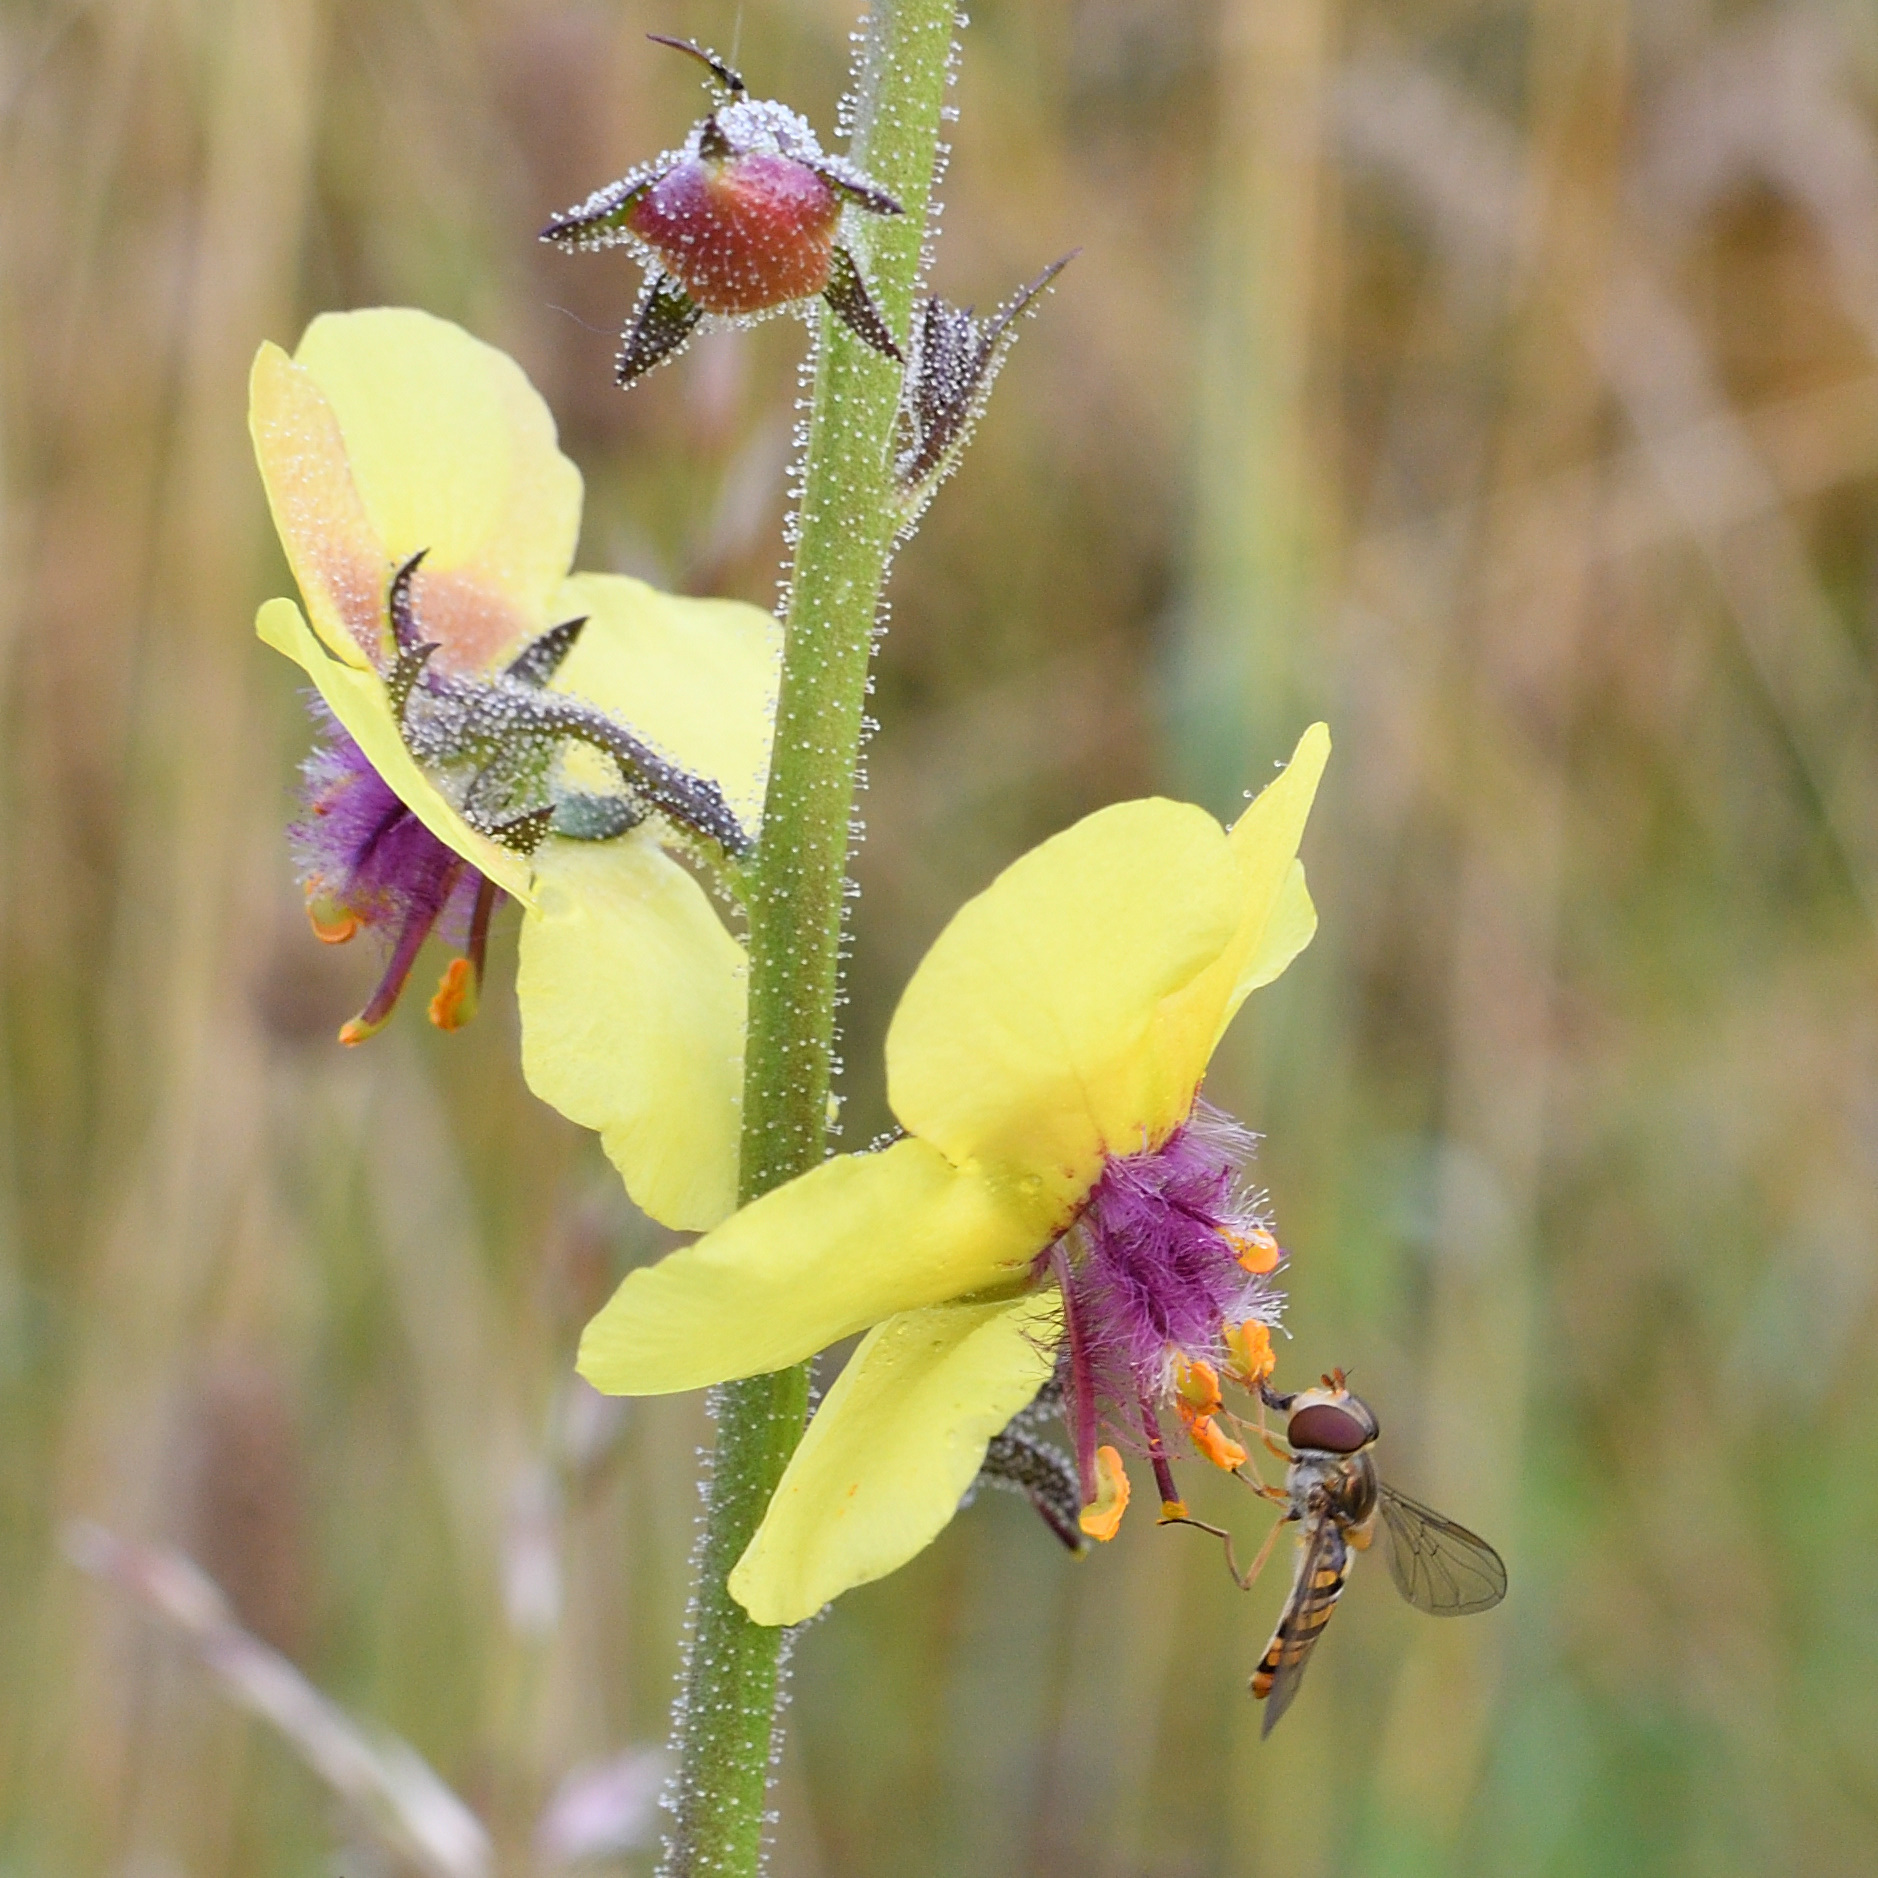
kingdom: Plantae
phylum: Tracheophyta
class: Magnoliopsida
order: Lamiales
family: Scrophulariaceae
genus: Verbascum
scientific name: Verbascum blattaria
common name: Moth mullein
